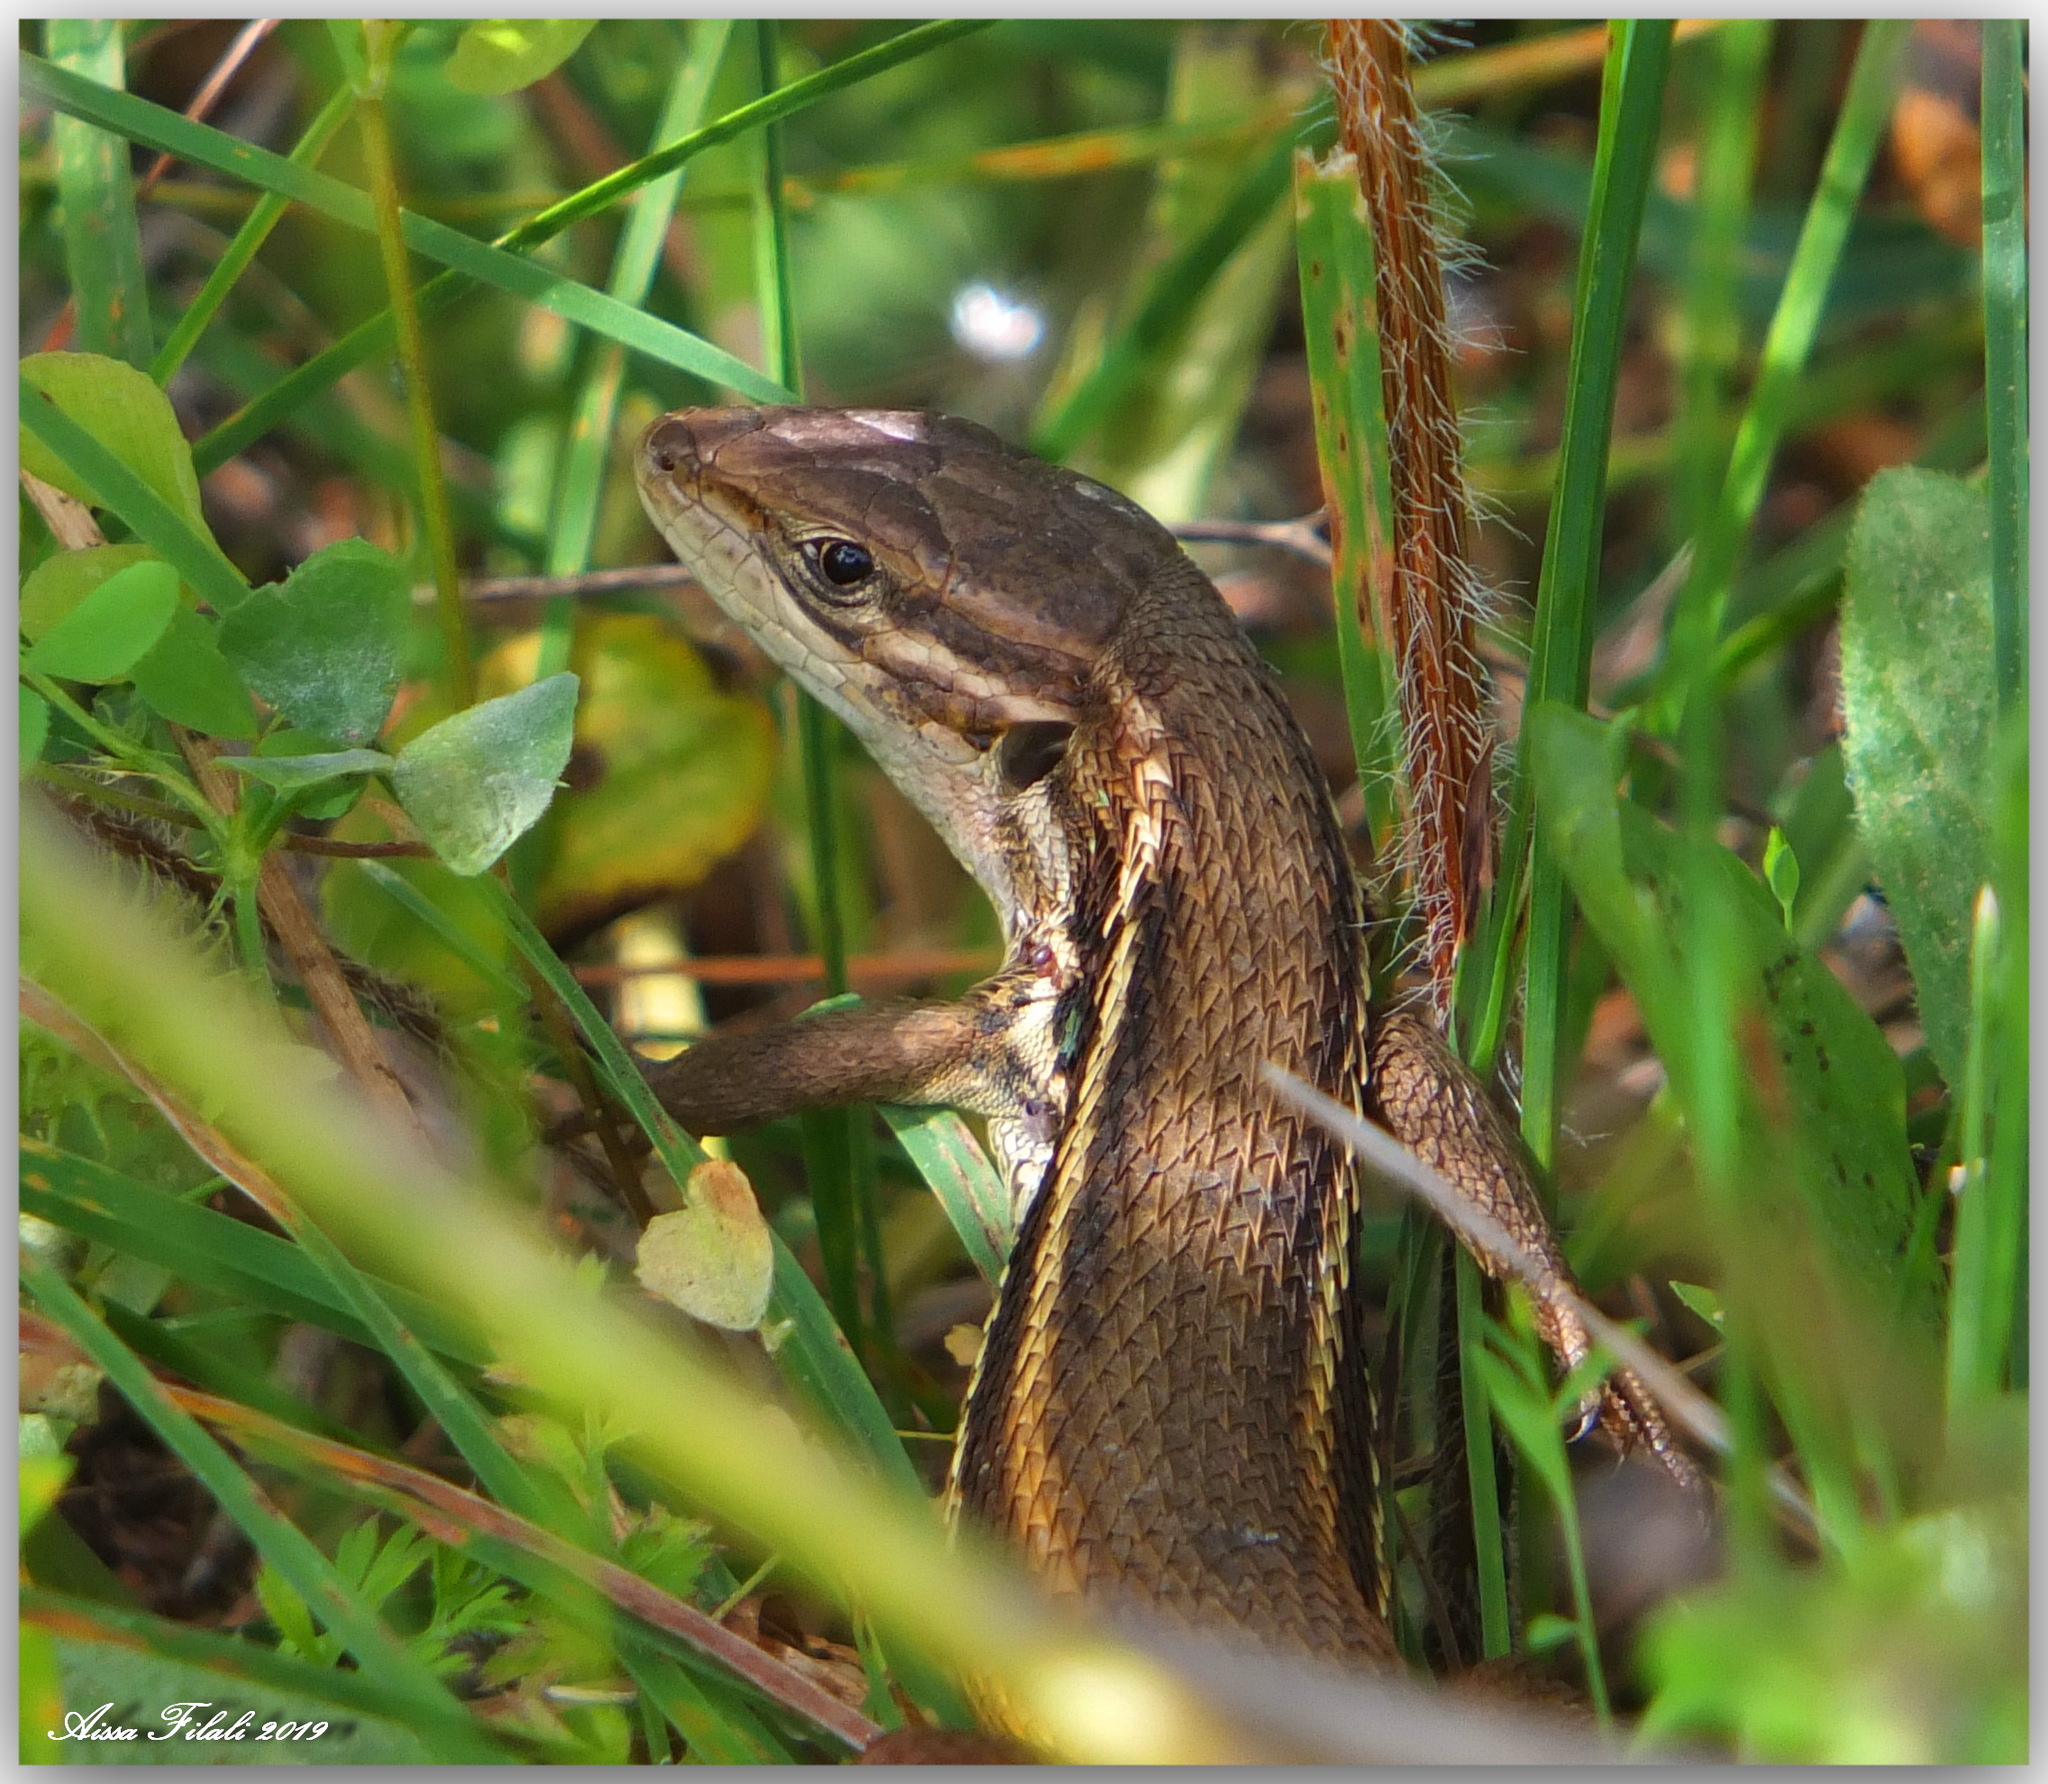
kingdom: Animalia
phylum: Chordata
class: Squamata
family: Lacertidae
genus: Psammodromus
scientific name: Psammodromus algirus
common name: Algerian psammodromus
